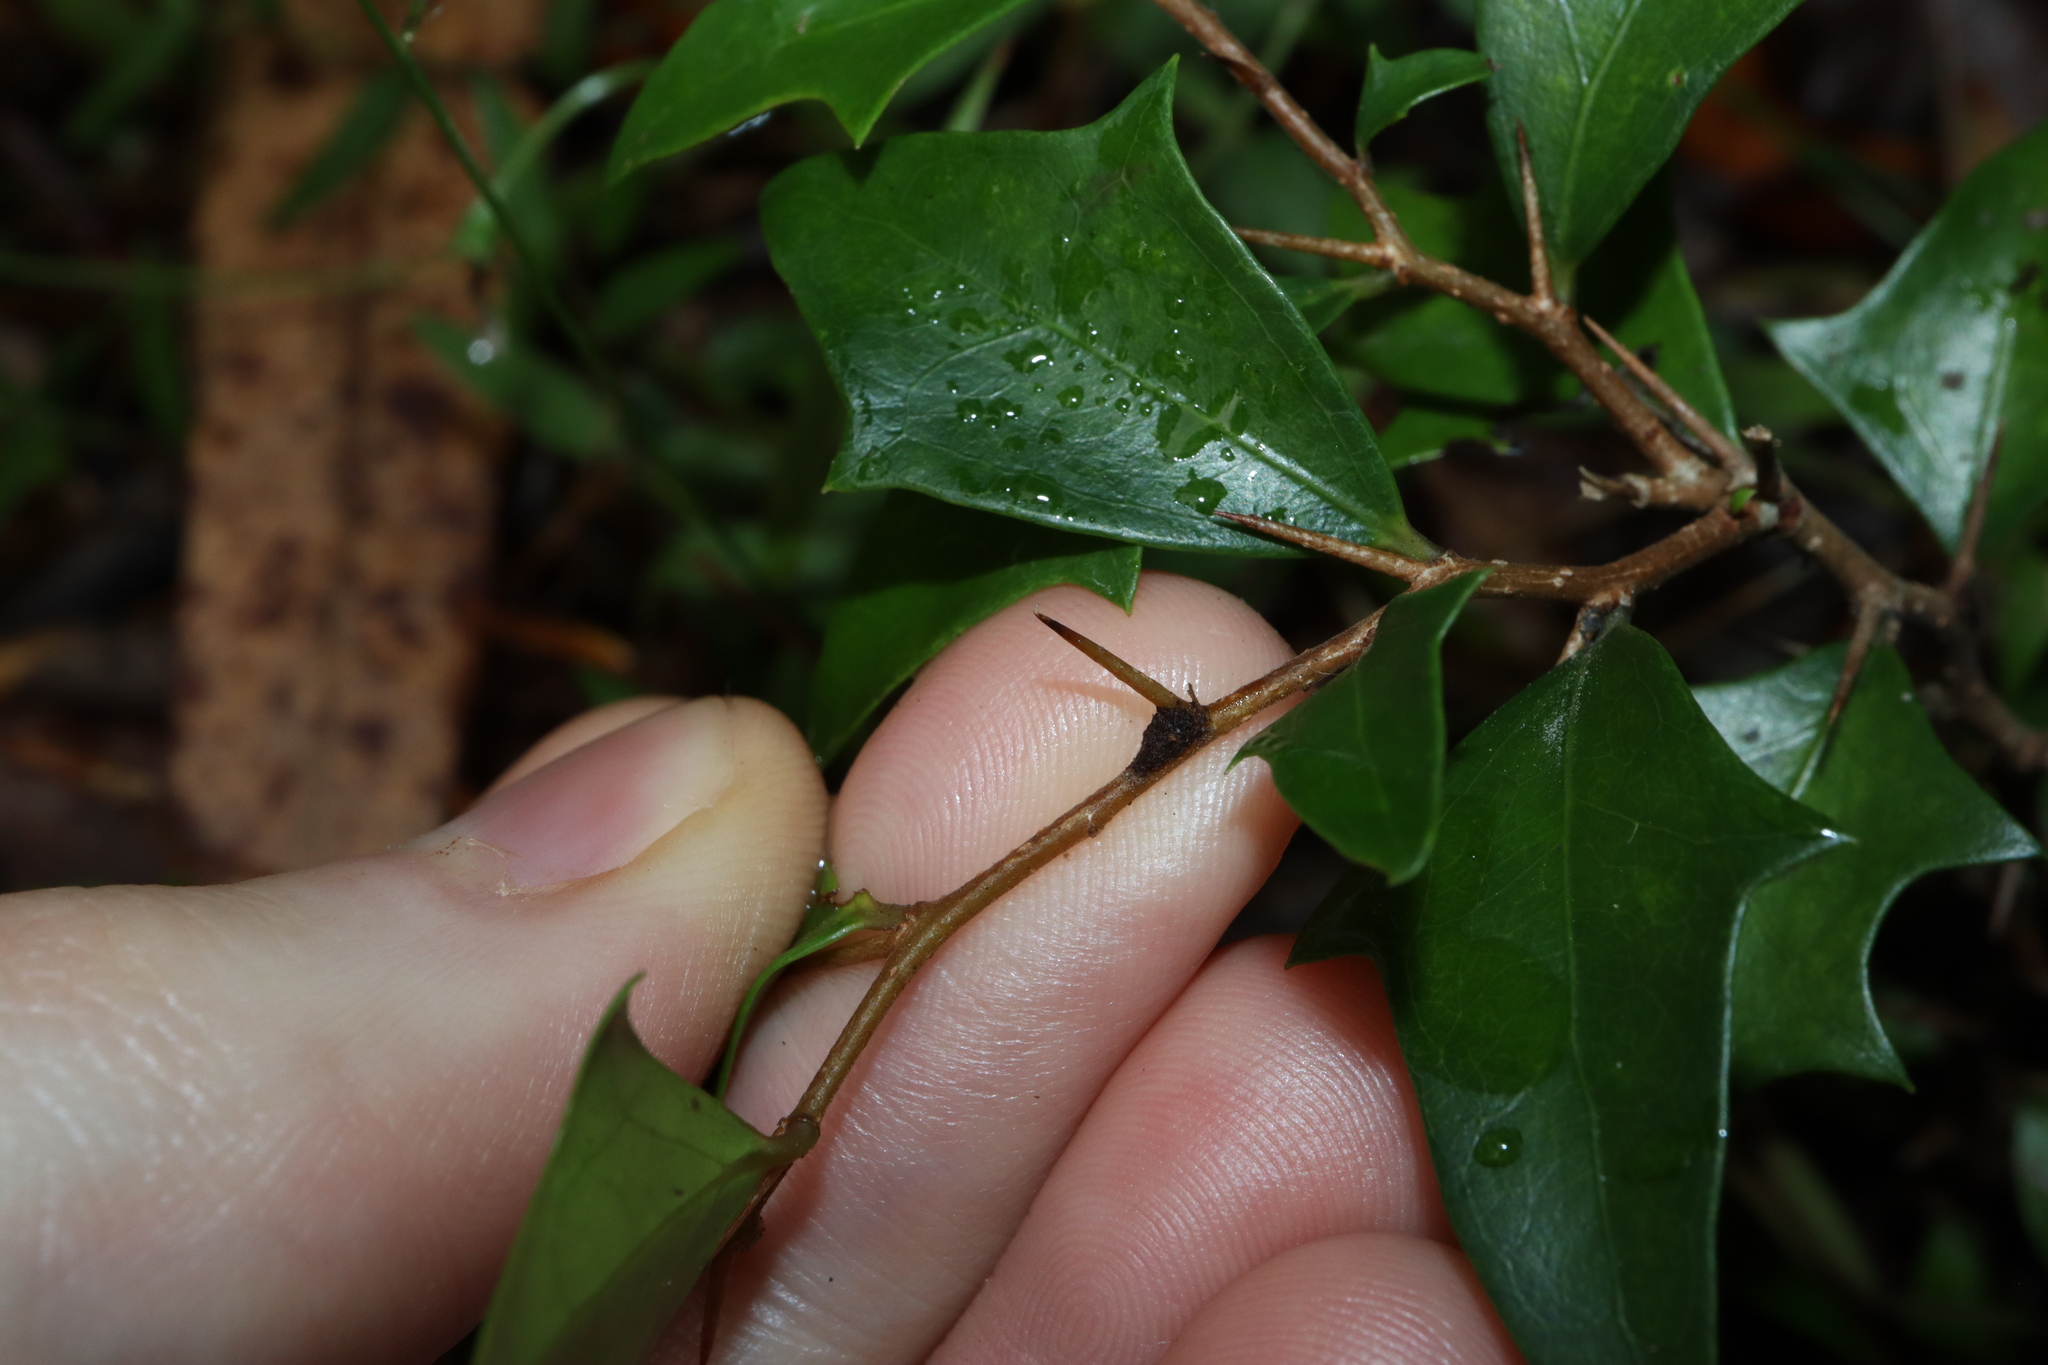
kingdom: Plantae
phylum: Tracheophyta
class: Magnoliopsida
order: Malpighiales
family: Salicaceae
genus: Scolopia
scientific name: Scolopia braunii
